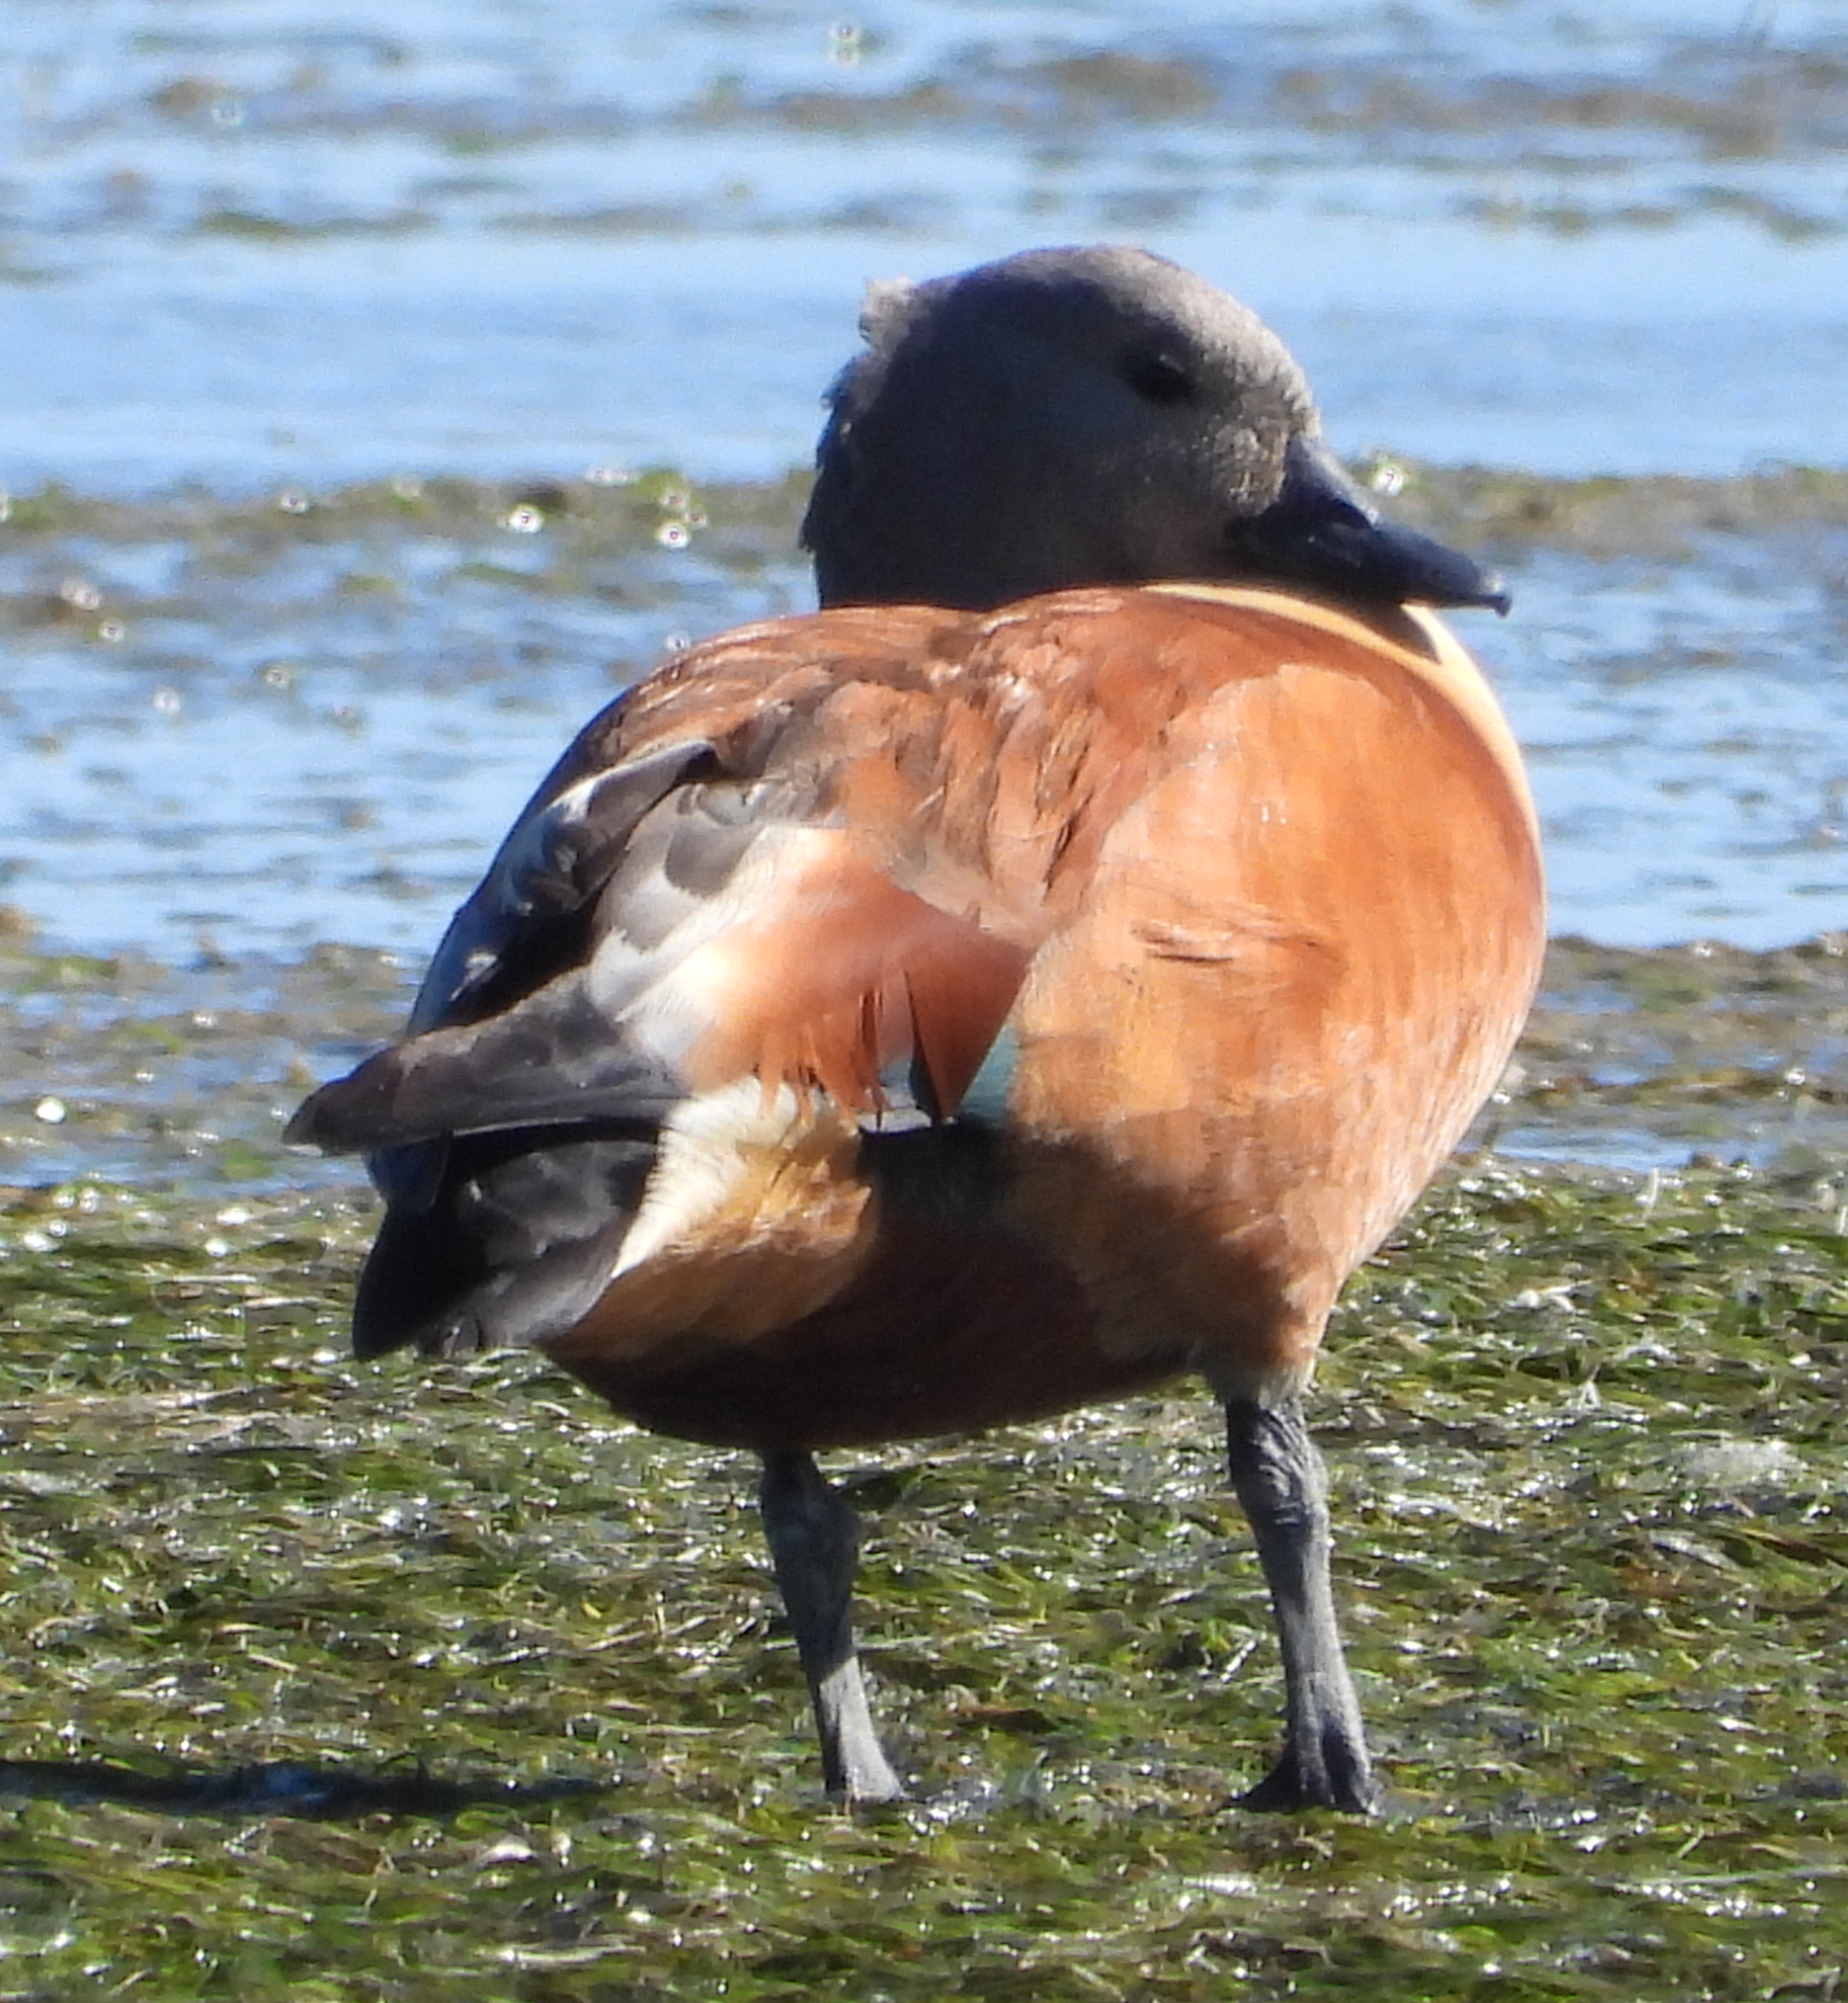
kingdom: Animalia
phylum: Chordata
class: Aves
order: Anseriformes
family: Anatidae
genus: Tadorna
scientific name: Tadorna cana
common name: South african shelduck
